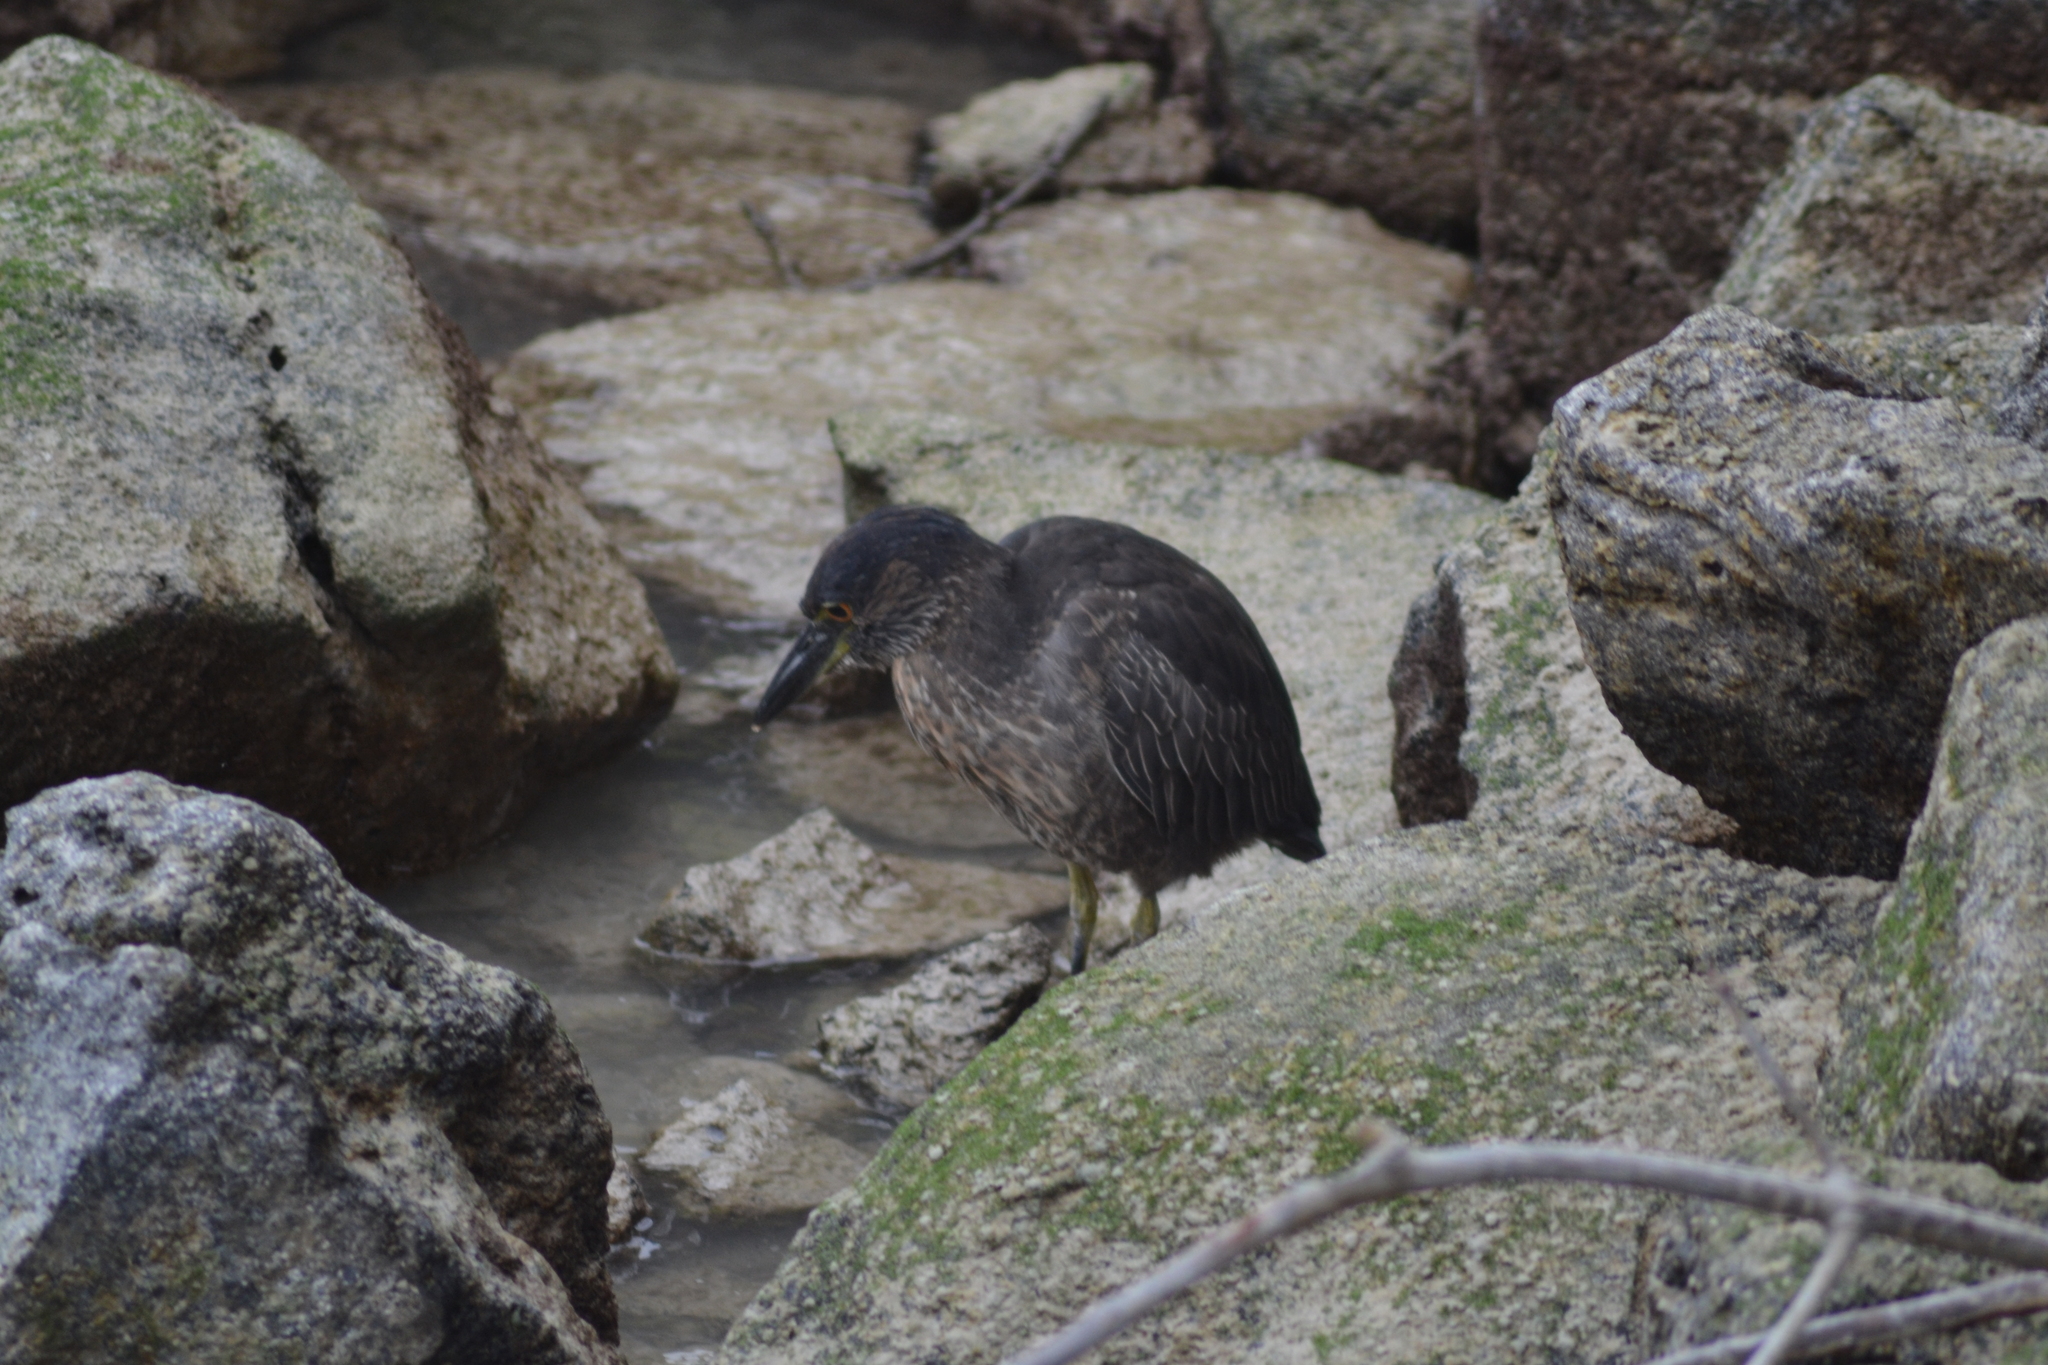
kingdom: Animalia
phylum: Chordata
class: Aves
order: Pelecaniformes
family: Ardeidae
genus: Nyctanassa
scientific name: Nyctanassa violacea
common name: Yellow-crowned night heron
